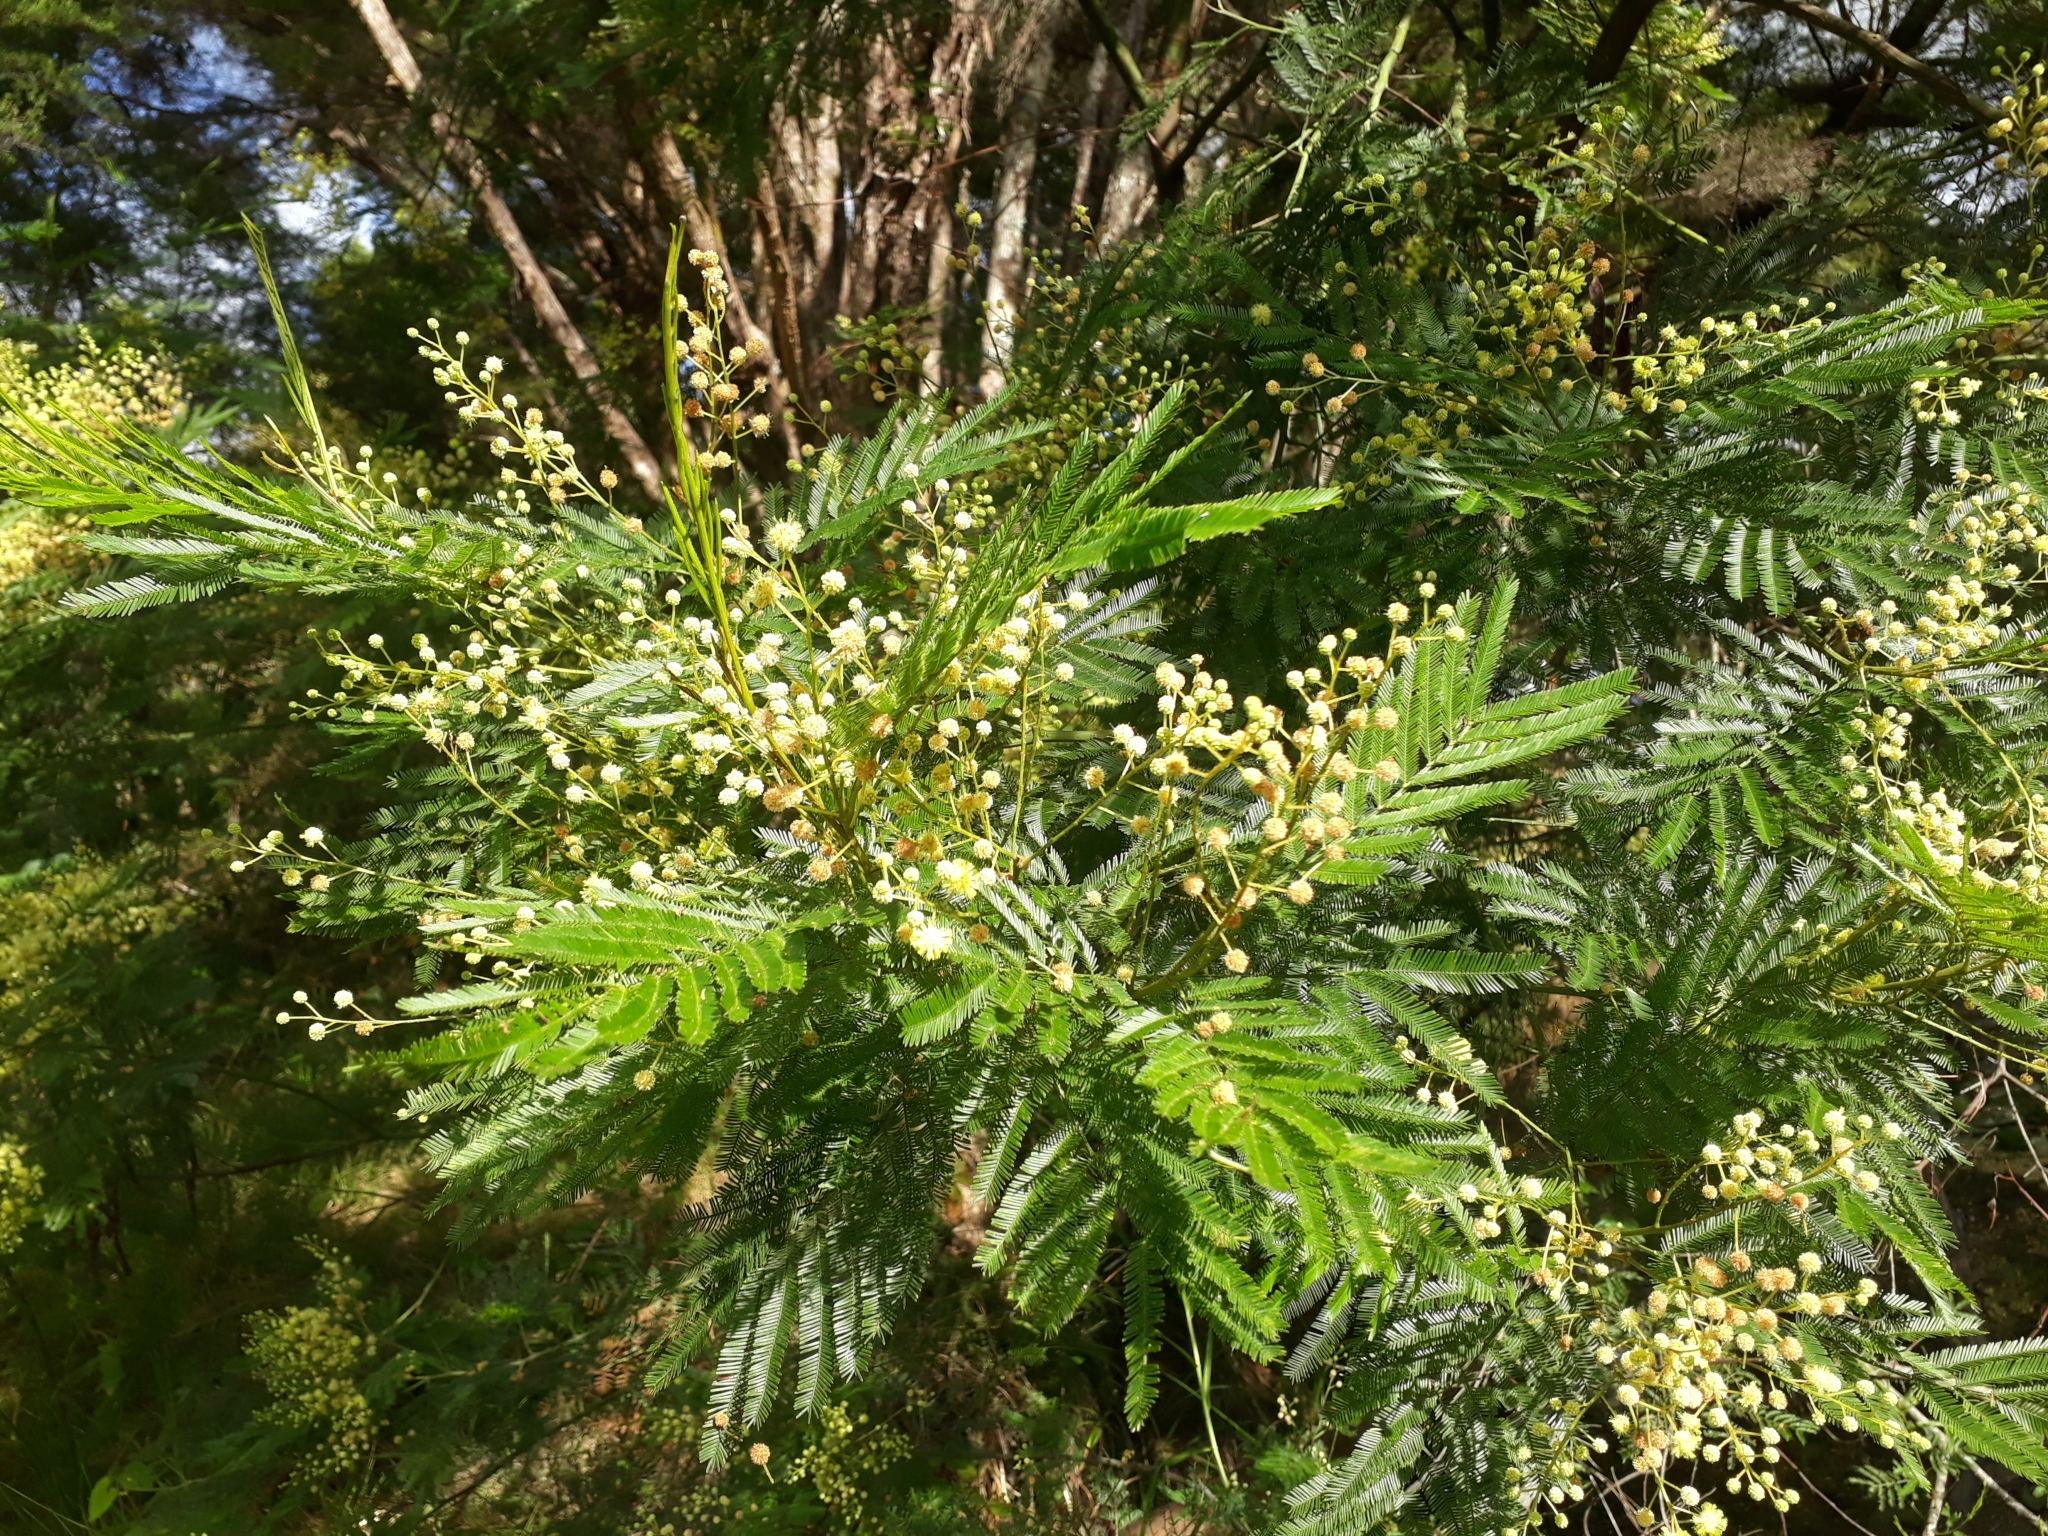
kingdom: Plantae
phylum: Tracheophyta
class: Magnoliopsida
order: Fabales
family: Fabaceae
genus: Acacia
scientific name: Acacia parramattensis
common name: Sydney green wattle
